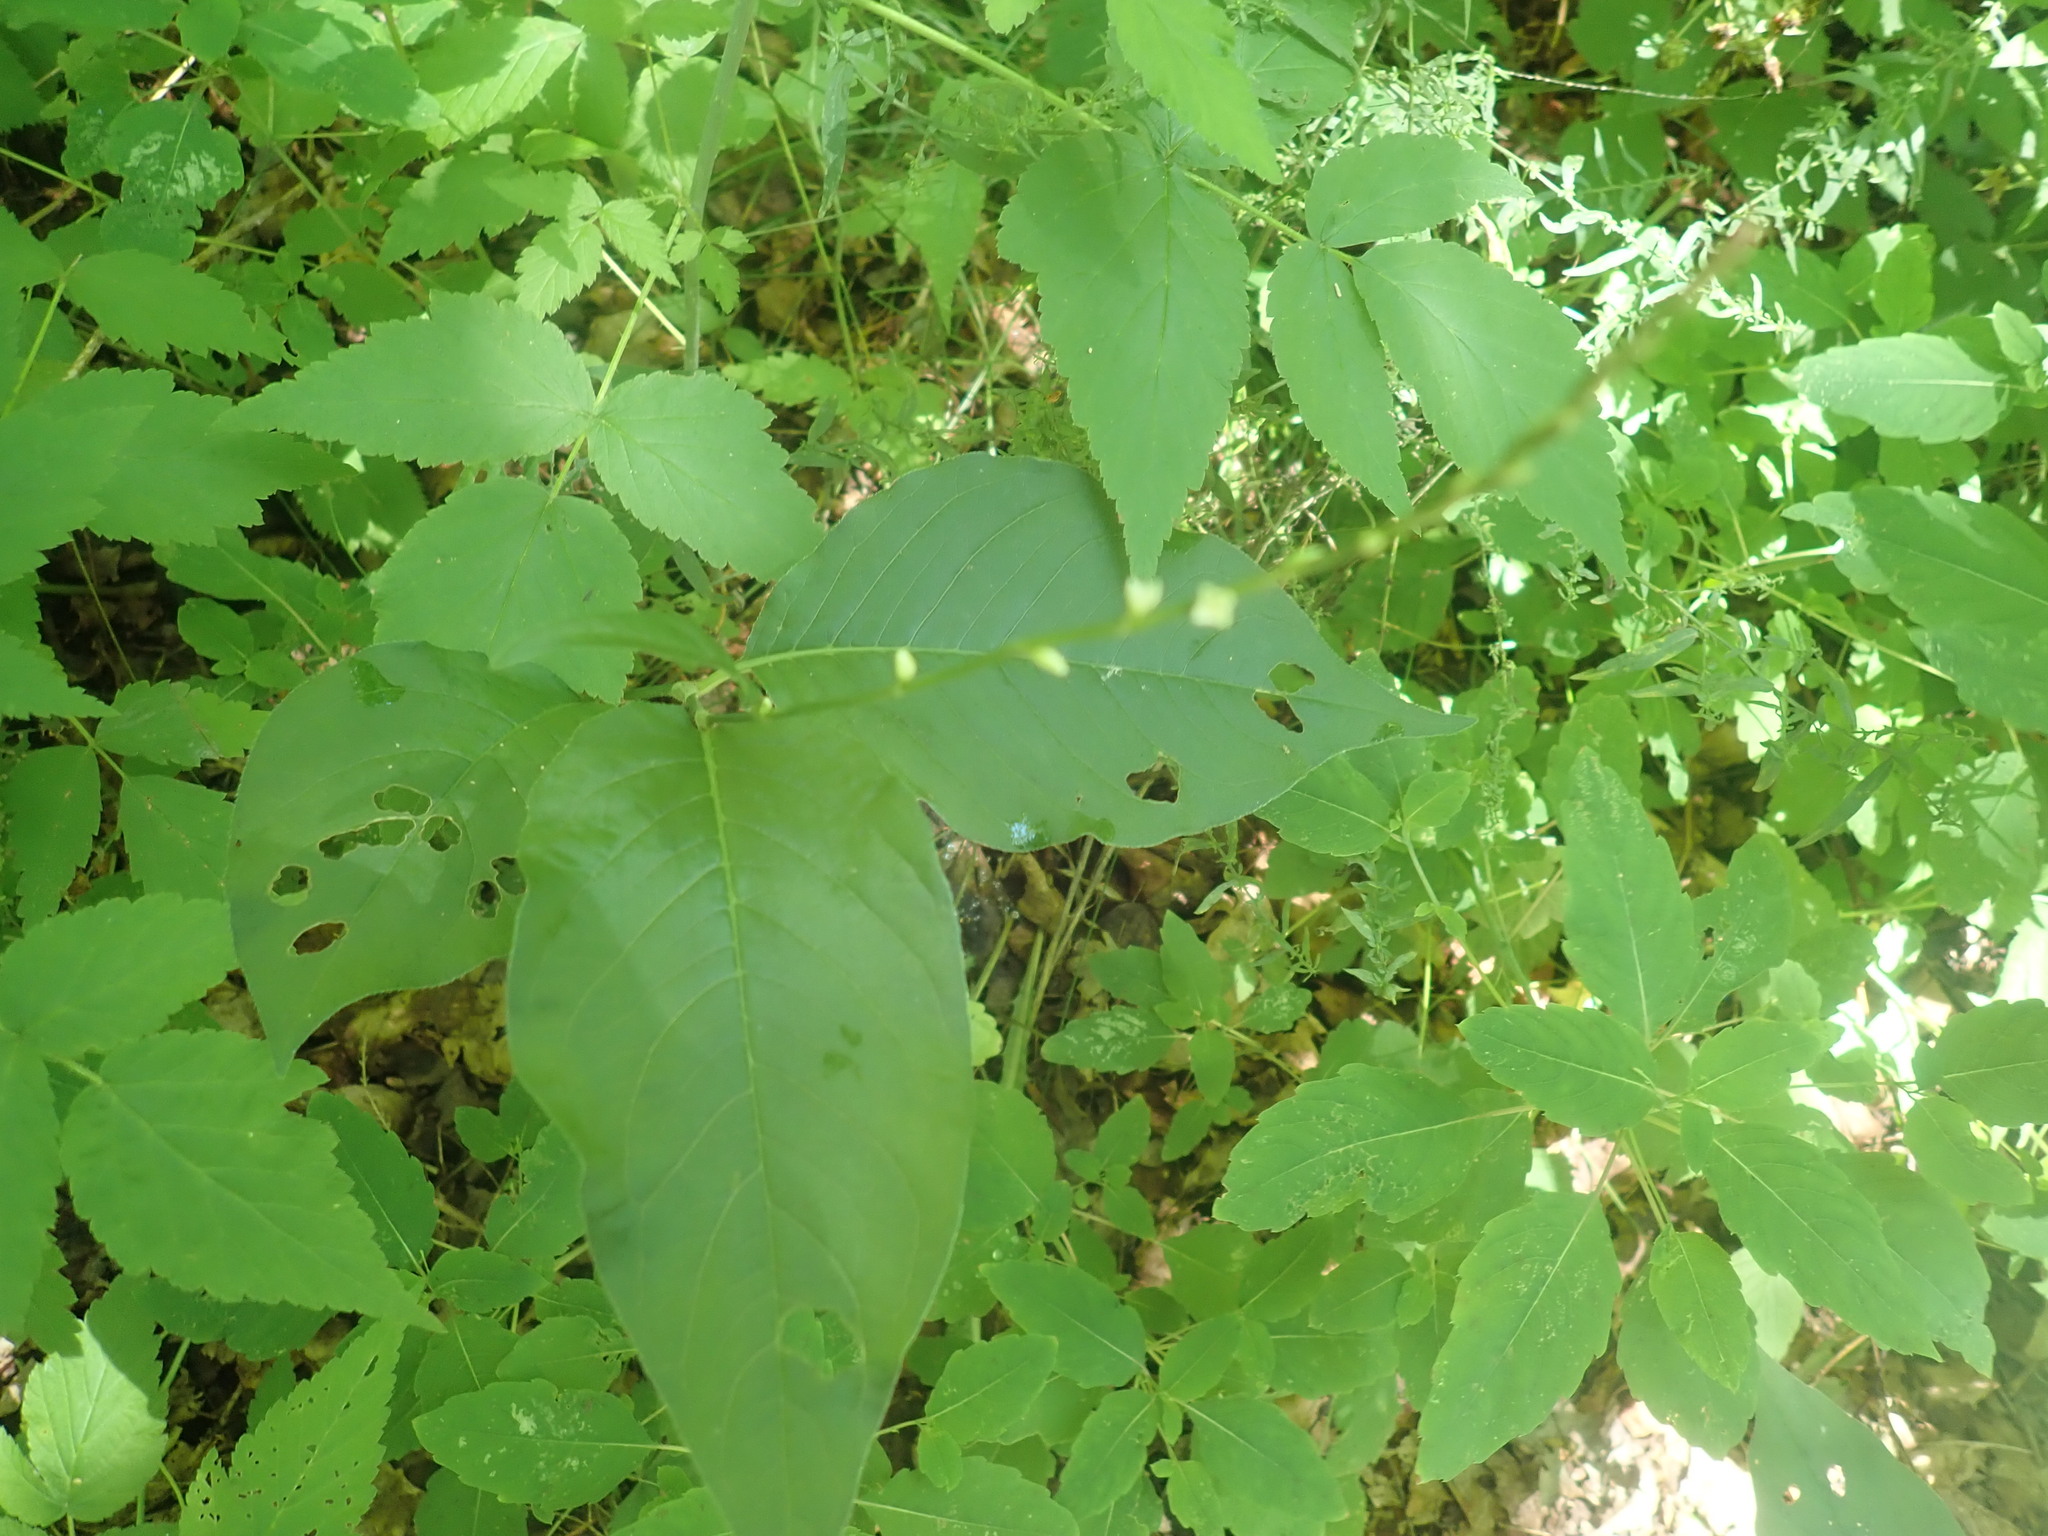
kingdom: Plantae
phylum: Tracheophyta
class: Magnoliopsida
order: Caryophyllales
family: Polygonaceae
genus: Persicaria
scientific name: Persicaria virginiana
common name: Jumpseed
